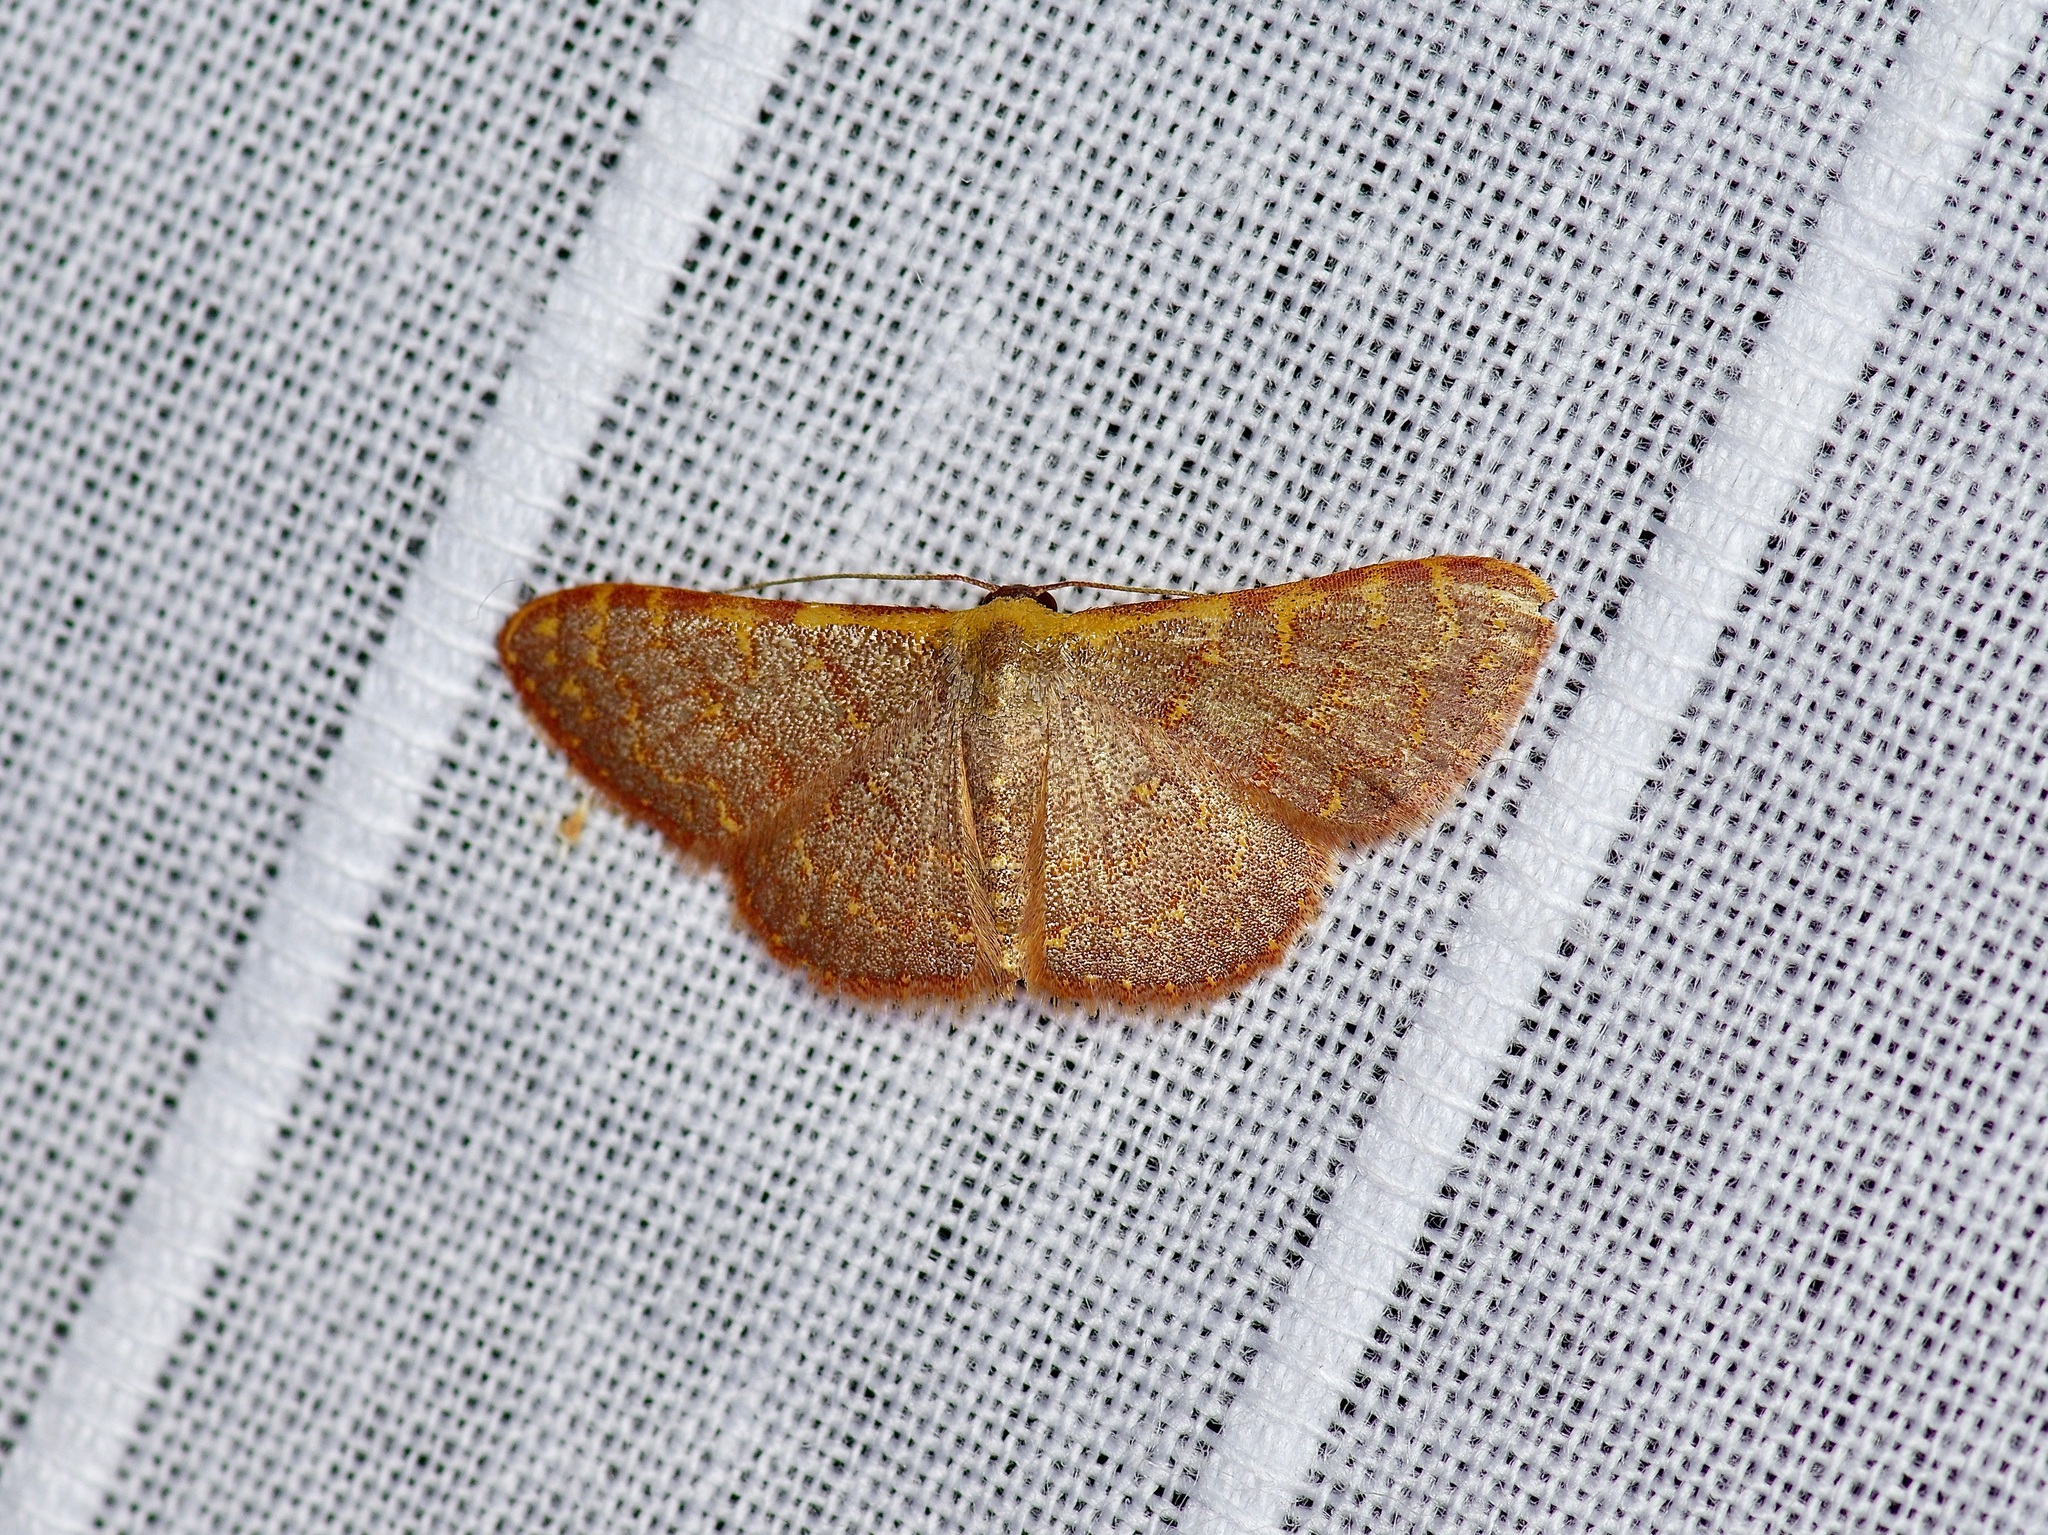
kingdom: Animalia
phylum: Arthropoda
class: Insecta
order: Lepidoptera
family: Geometridae
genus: Leptostales
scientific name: Leptostales pannaria
